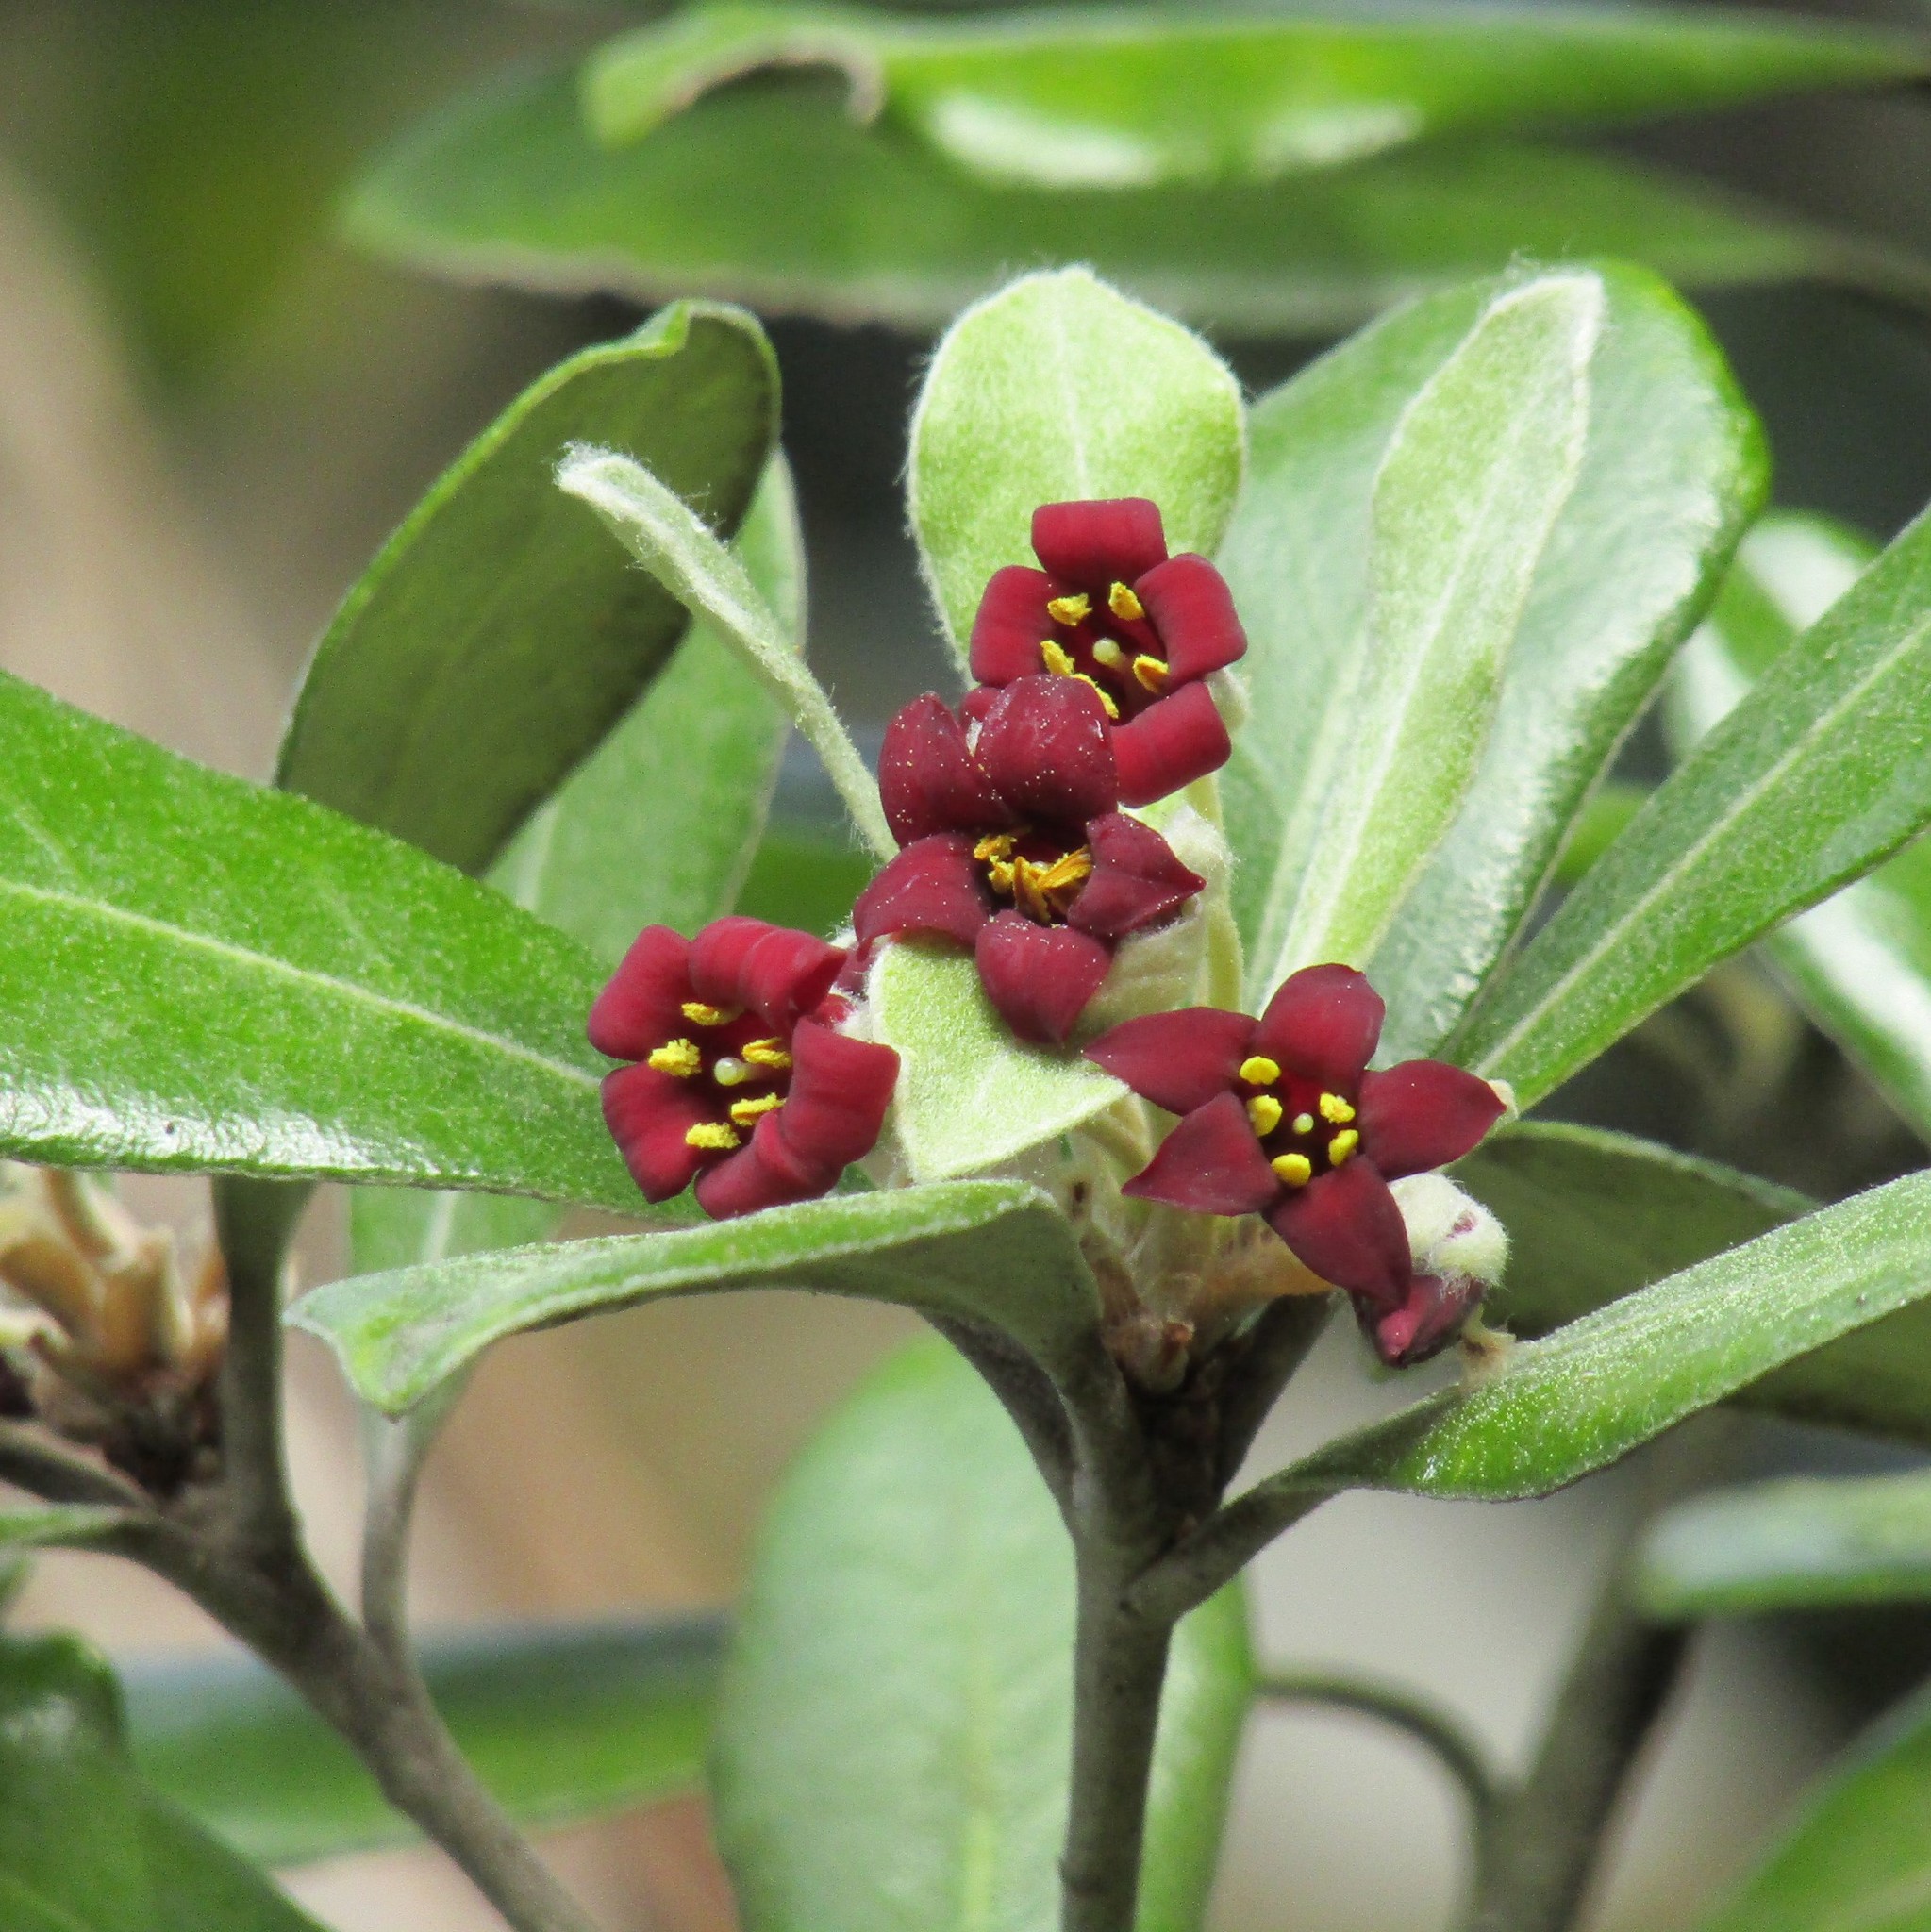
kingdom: Plantae
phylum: Tracheophyta
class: Magnoliopsida
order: Apiales
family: Pittosporaceae
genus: Pittosporum
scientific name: Pittosporum crassifolium
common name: Karo
